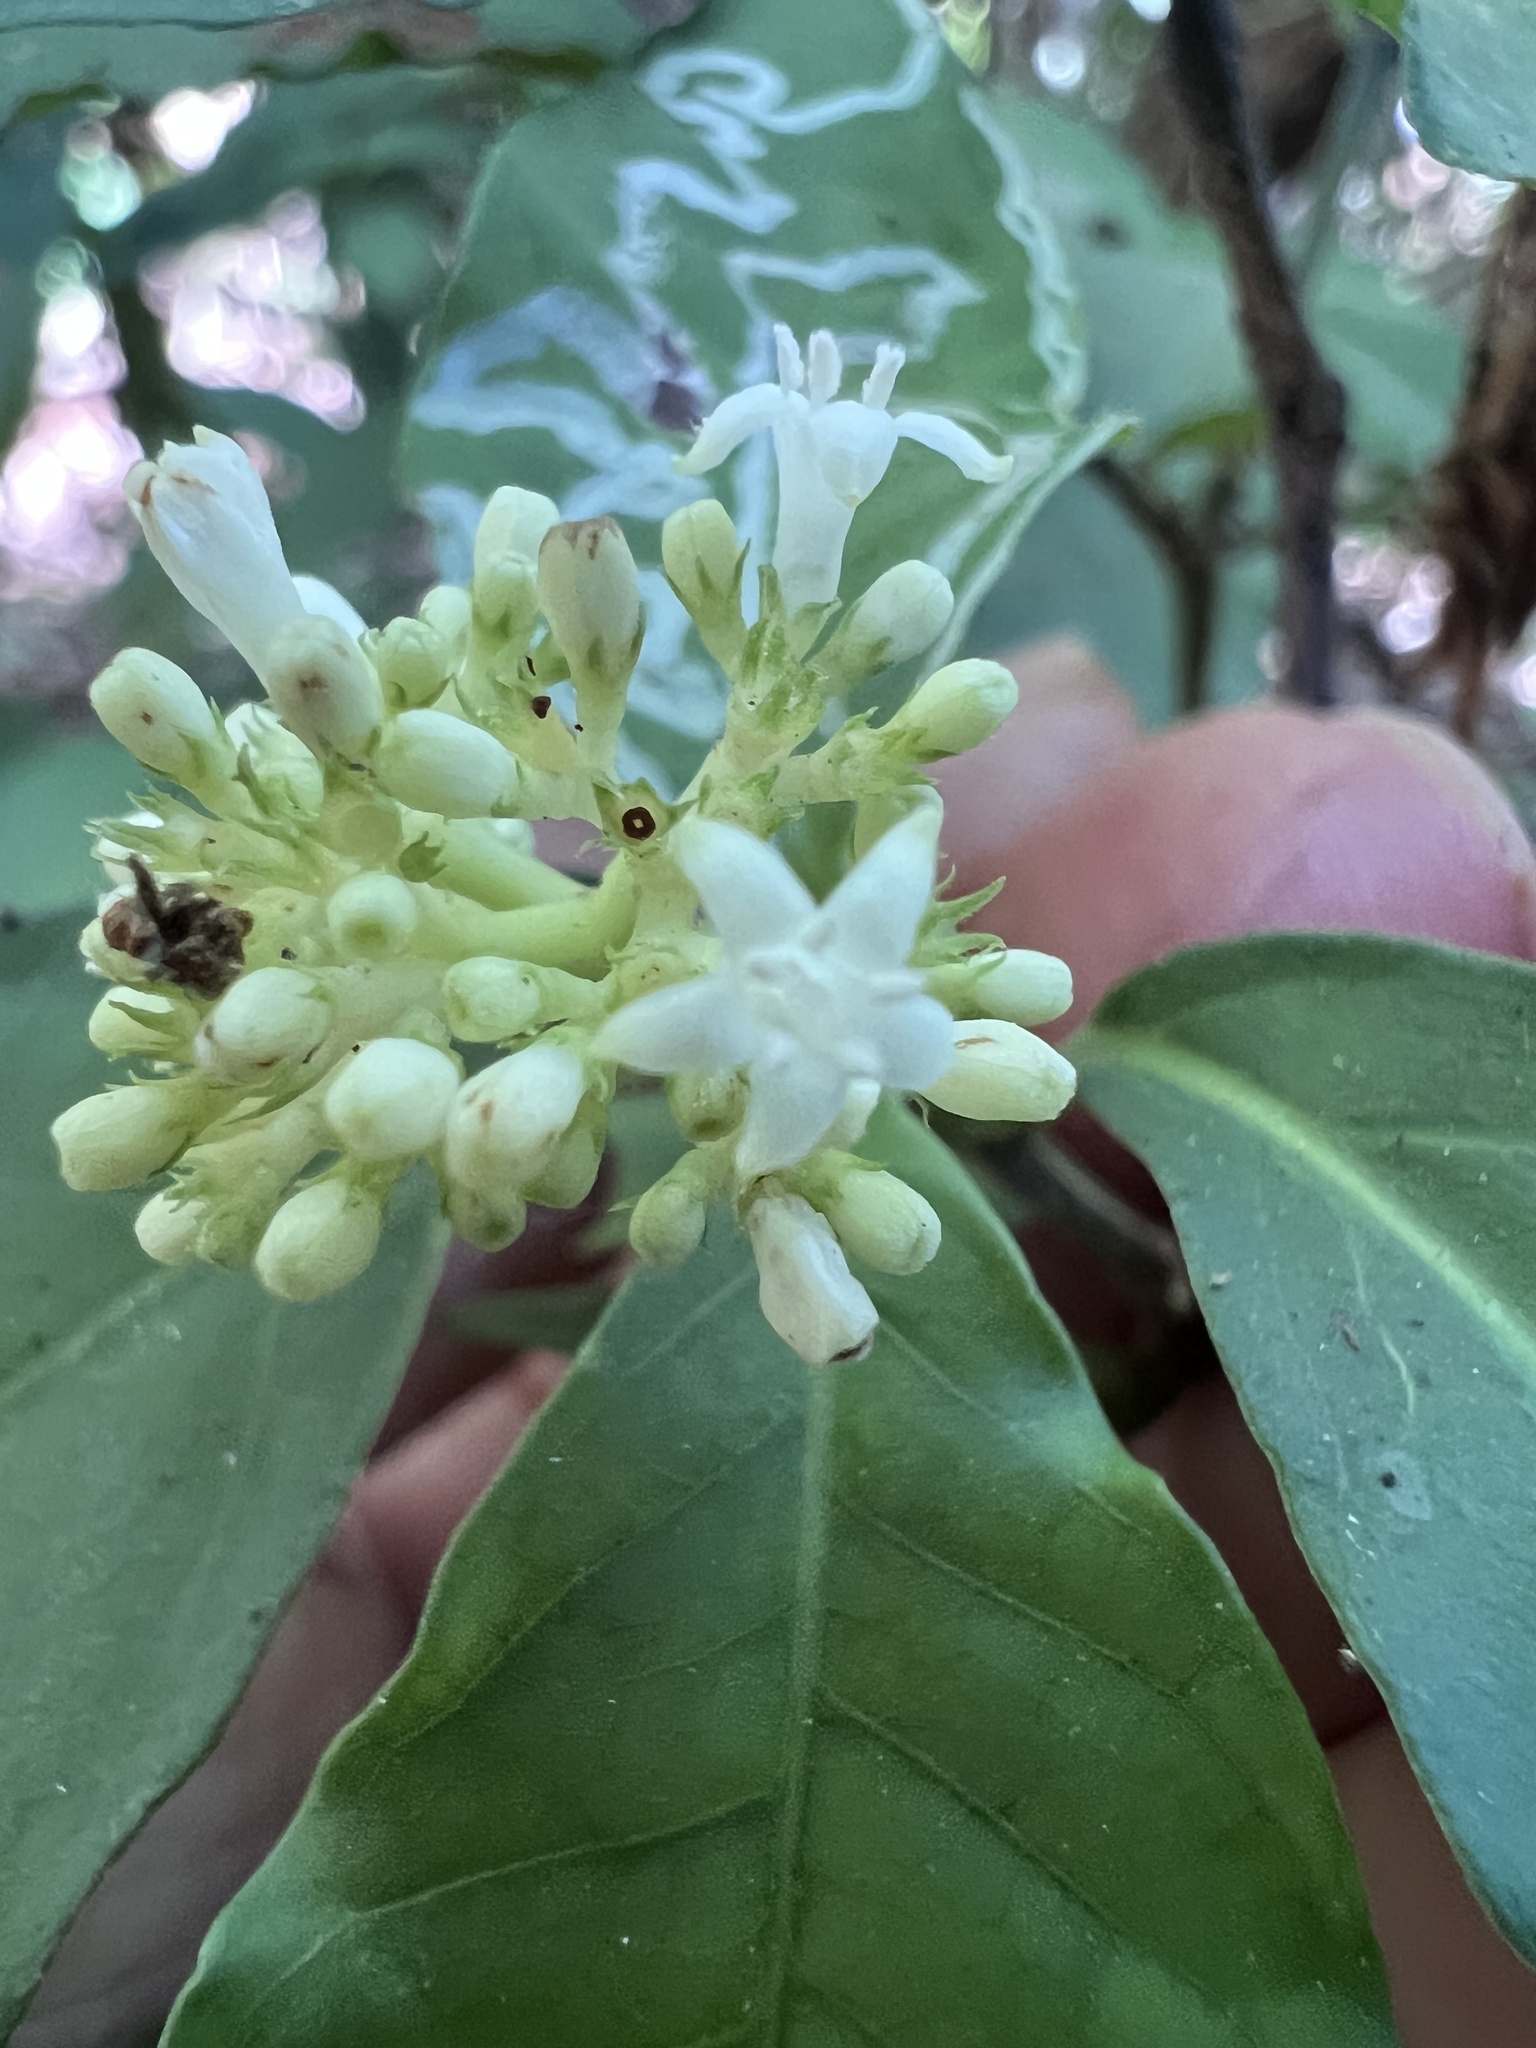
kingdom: Plantae
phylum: Tracheophyta
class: Magnoliopsida
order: Gentianales
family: Rubiaceae
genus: Psychotria
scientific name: Psychotria carthagenensis
